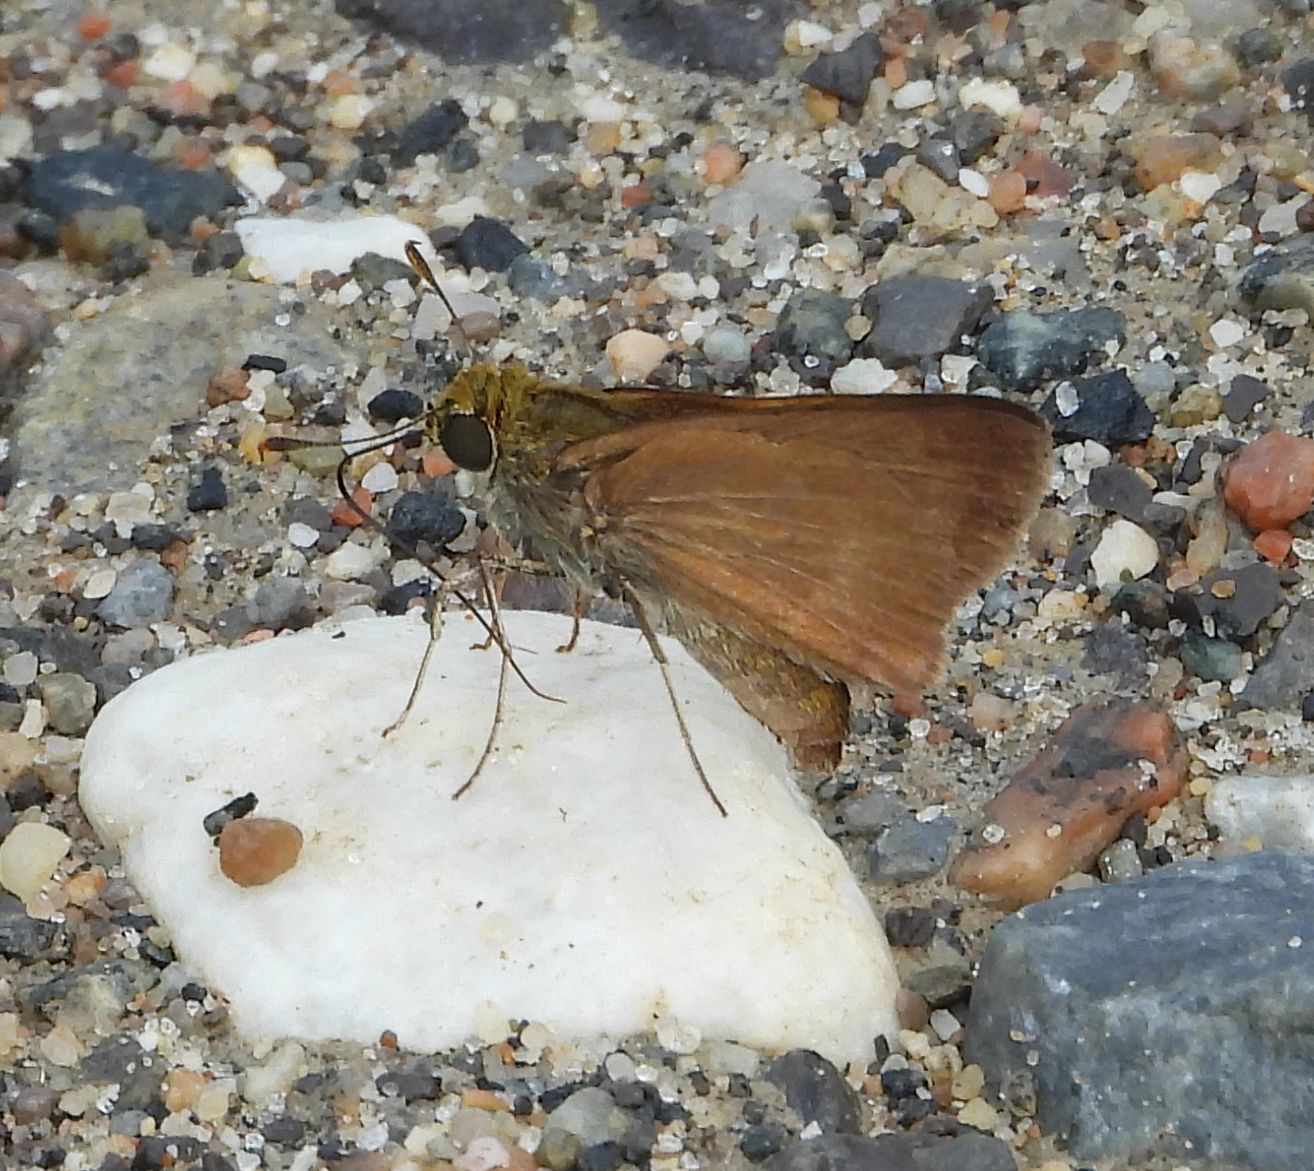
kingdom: Animalia
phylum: Arthropoda
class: Insecta
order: Lepidoptera
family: Hesperiidae
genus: Euphyes
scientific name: Euphyes vestris
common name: Dun skipper
